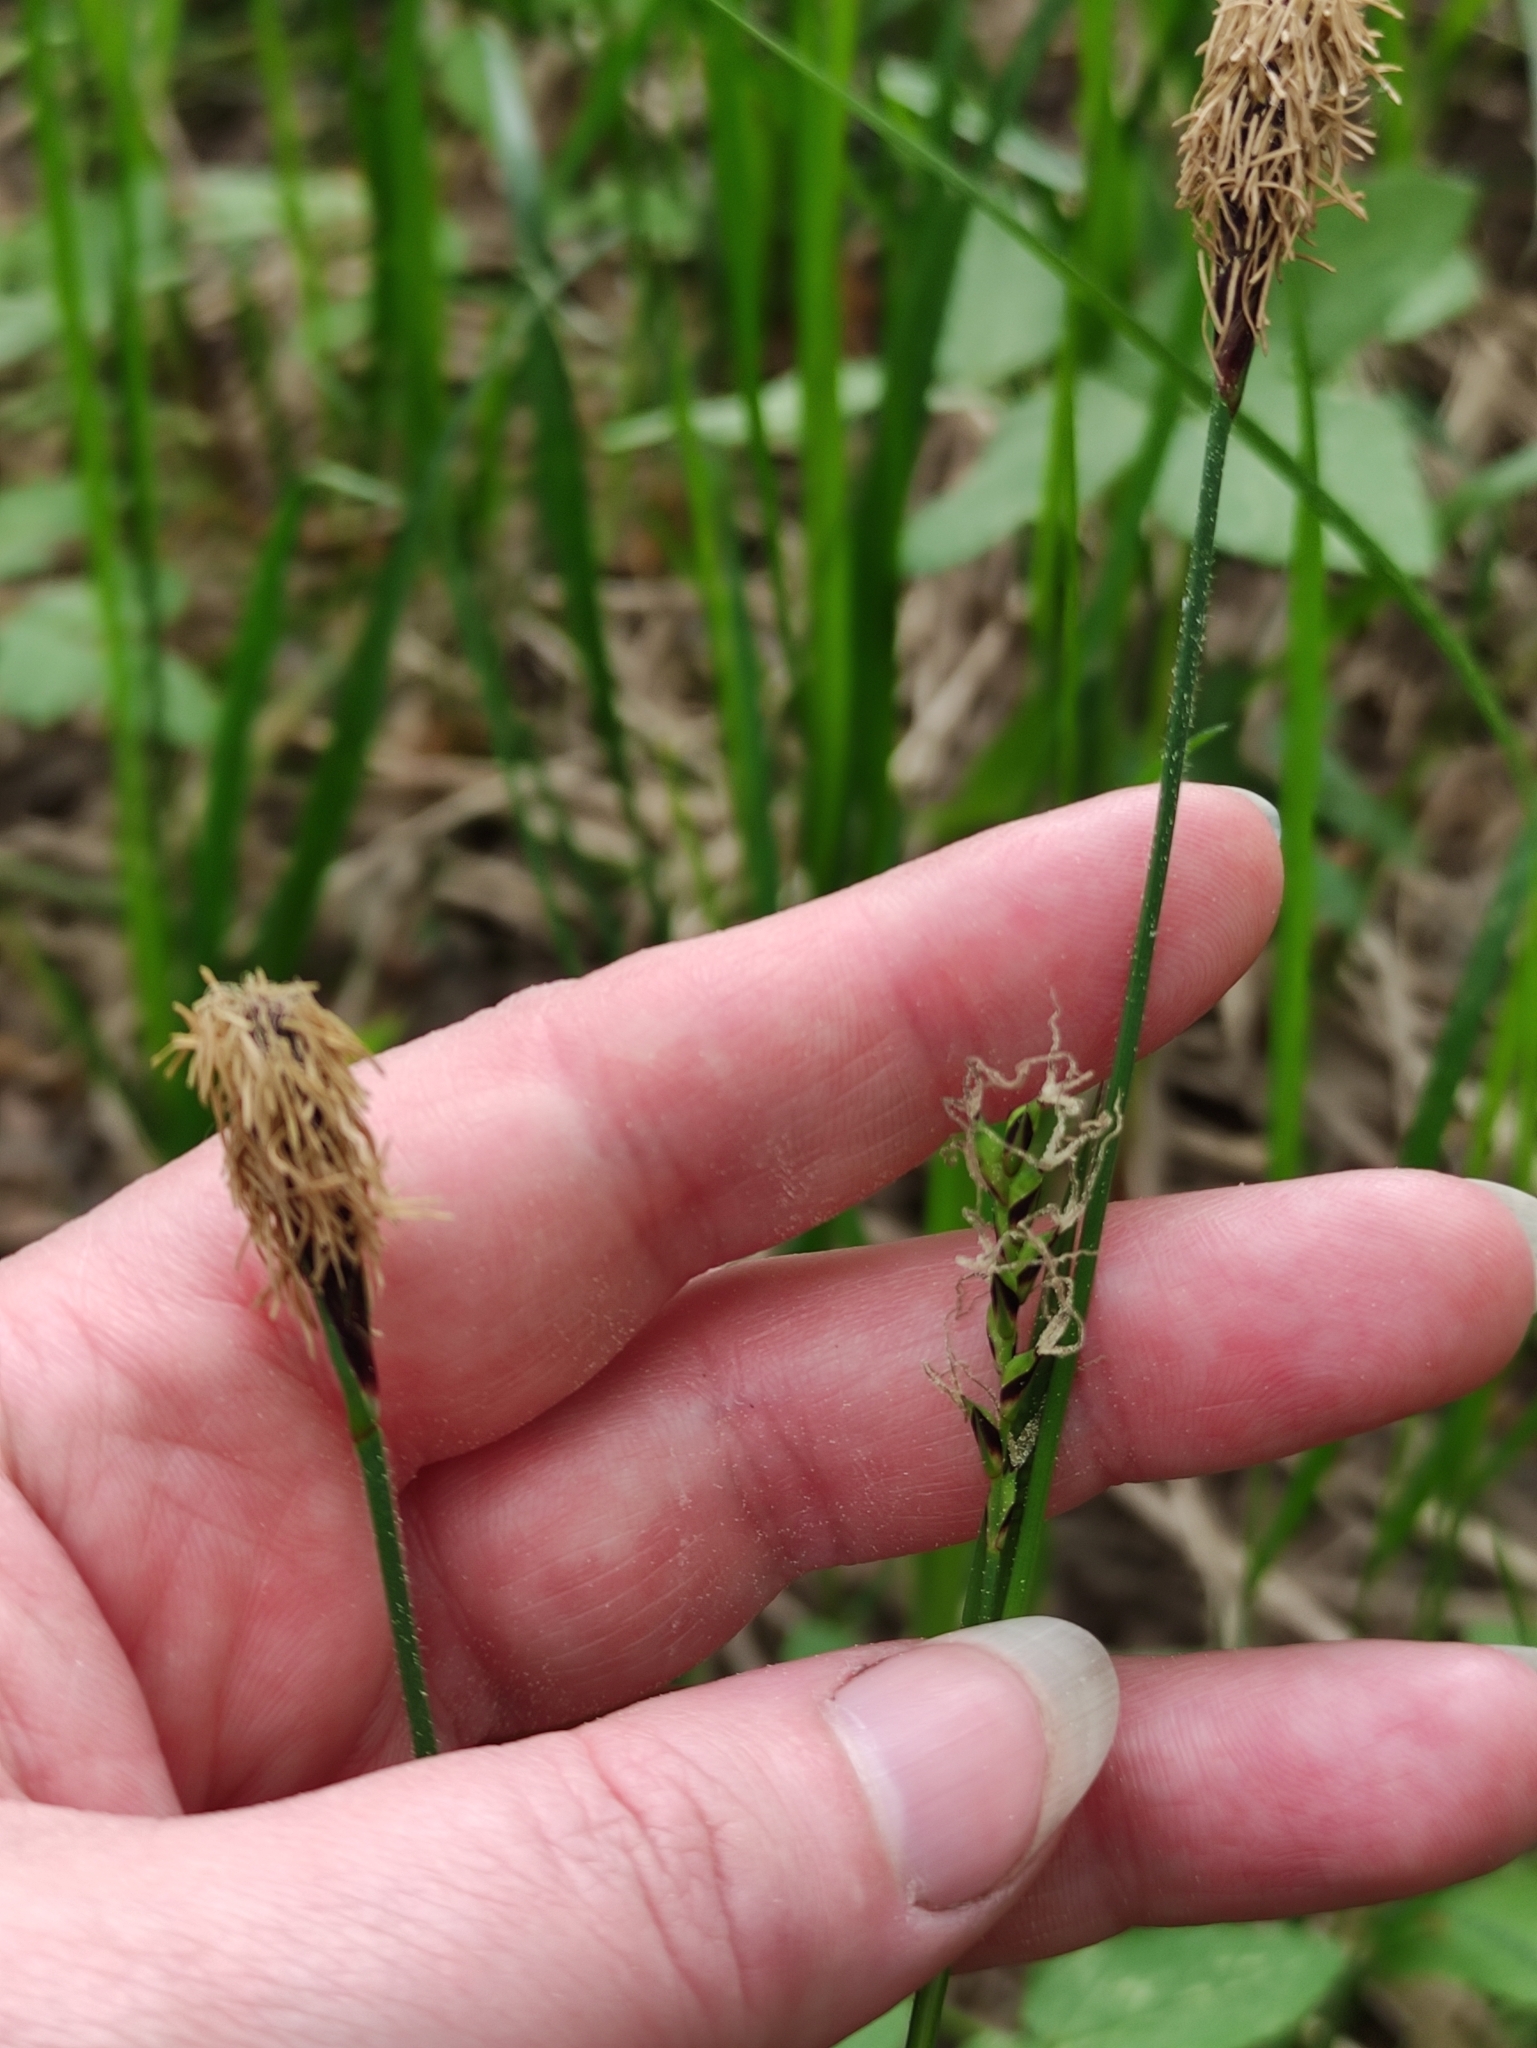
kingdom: Plantae
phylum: Tracheophyta
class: Liliopsida
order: Poales
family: Cyperaceae
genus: Carex
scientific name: Carex pilosa
